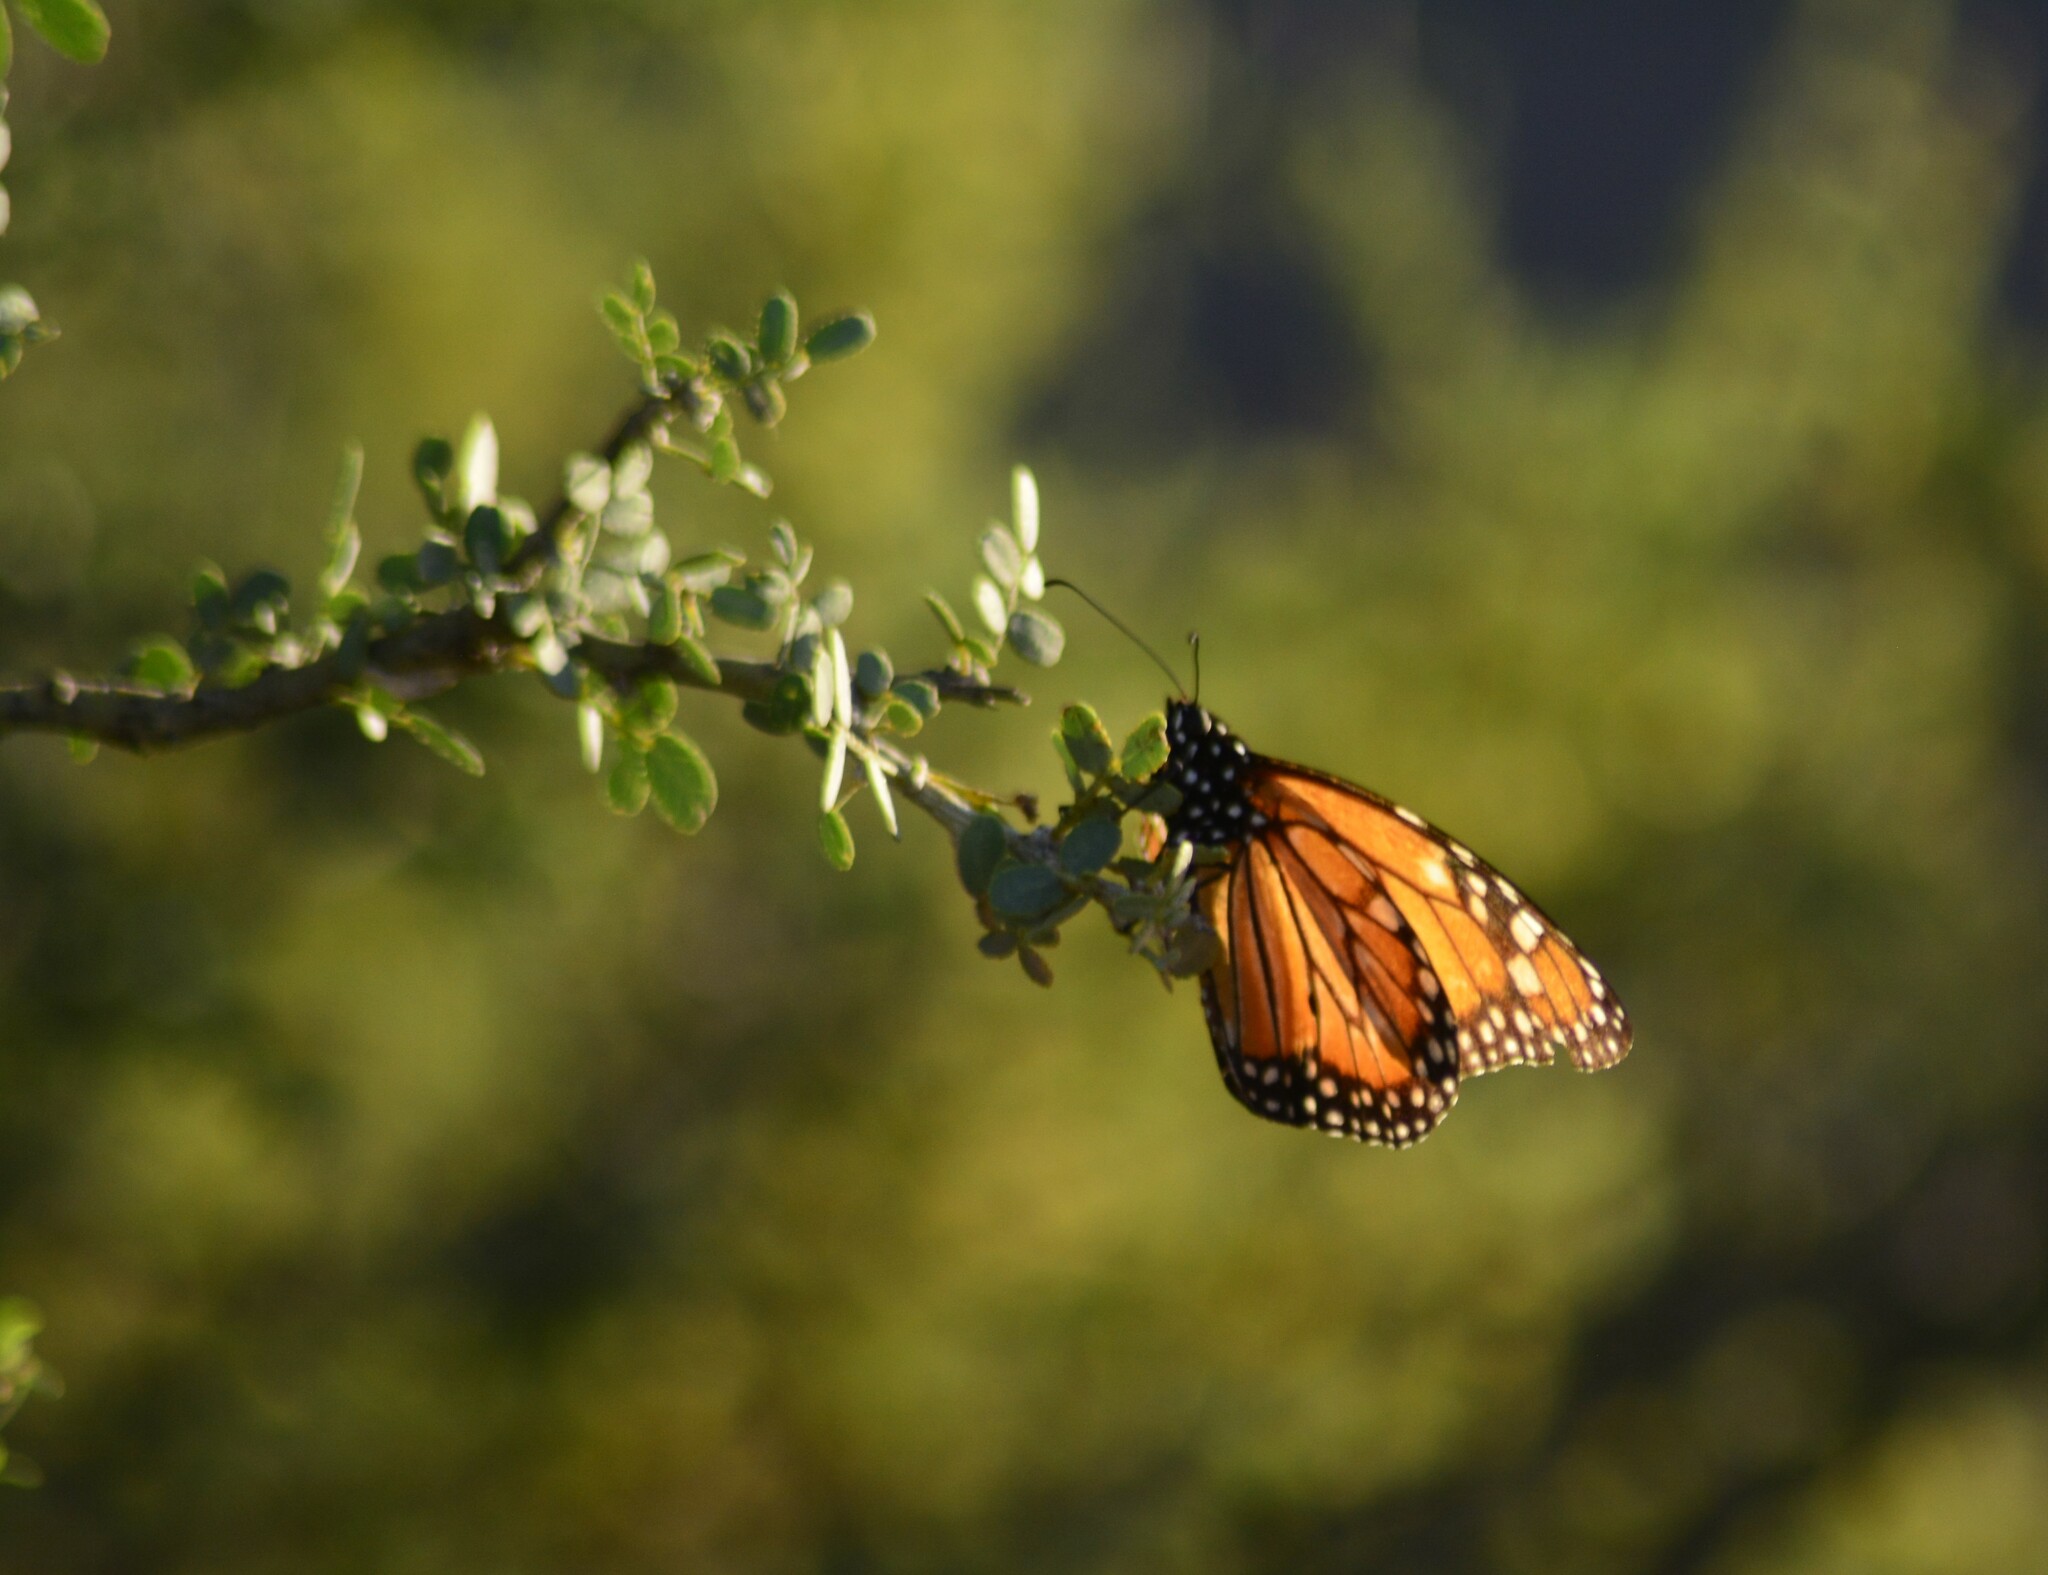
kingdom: Animalia
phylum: Arthropoda
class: Insecta
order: Lepidoptera
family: Nymphalidae
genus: Danaus
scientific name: Danaus erippus
